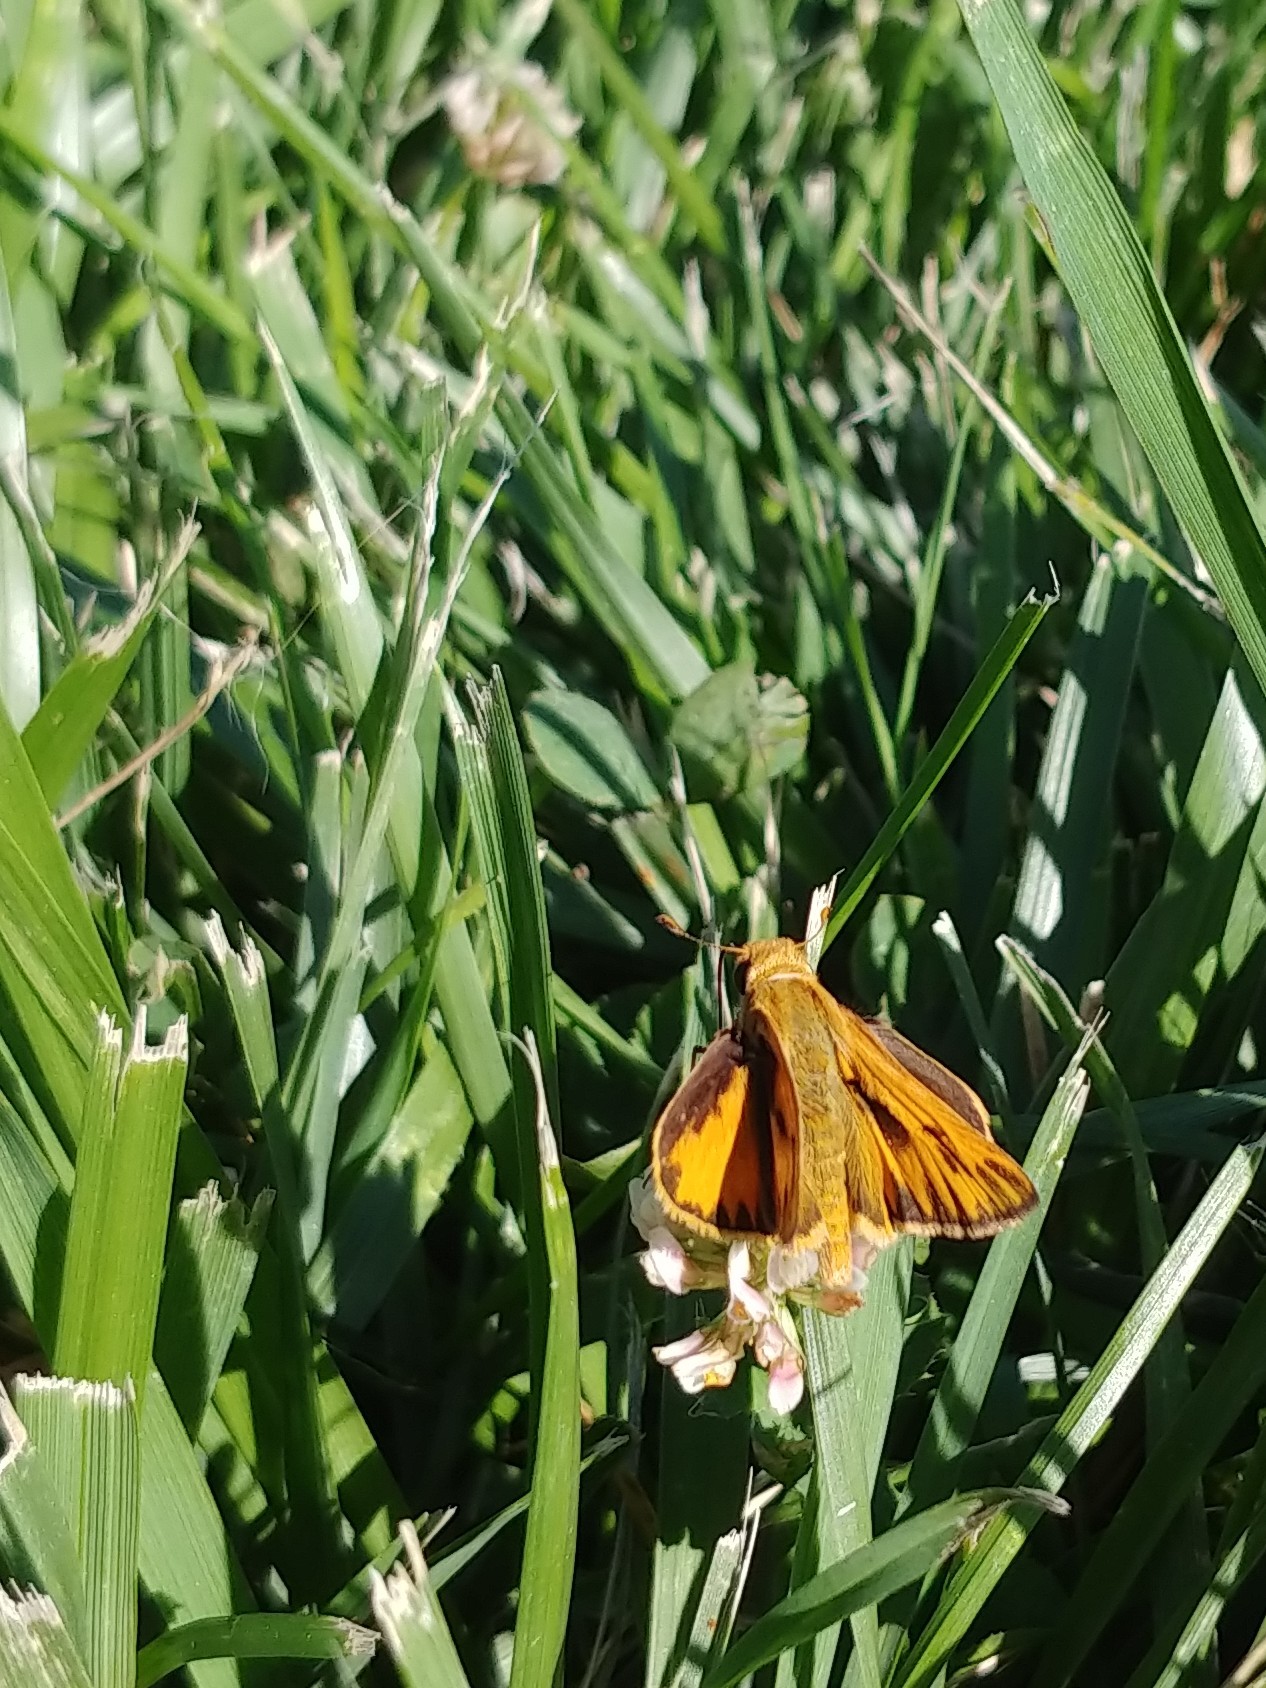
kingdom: Animalia
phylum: Arthropoda
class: Insecta
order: Lepidoptera
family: Hesperiidae
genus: Hylephila
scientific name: Hylephila phyleus
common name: Fiery skipper
